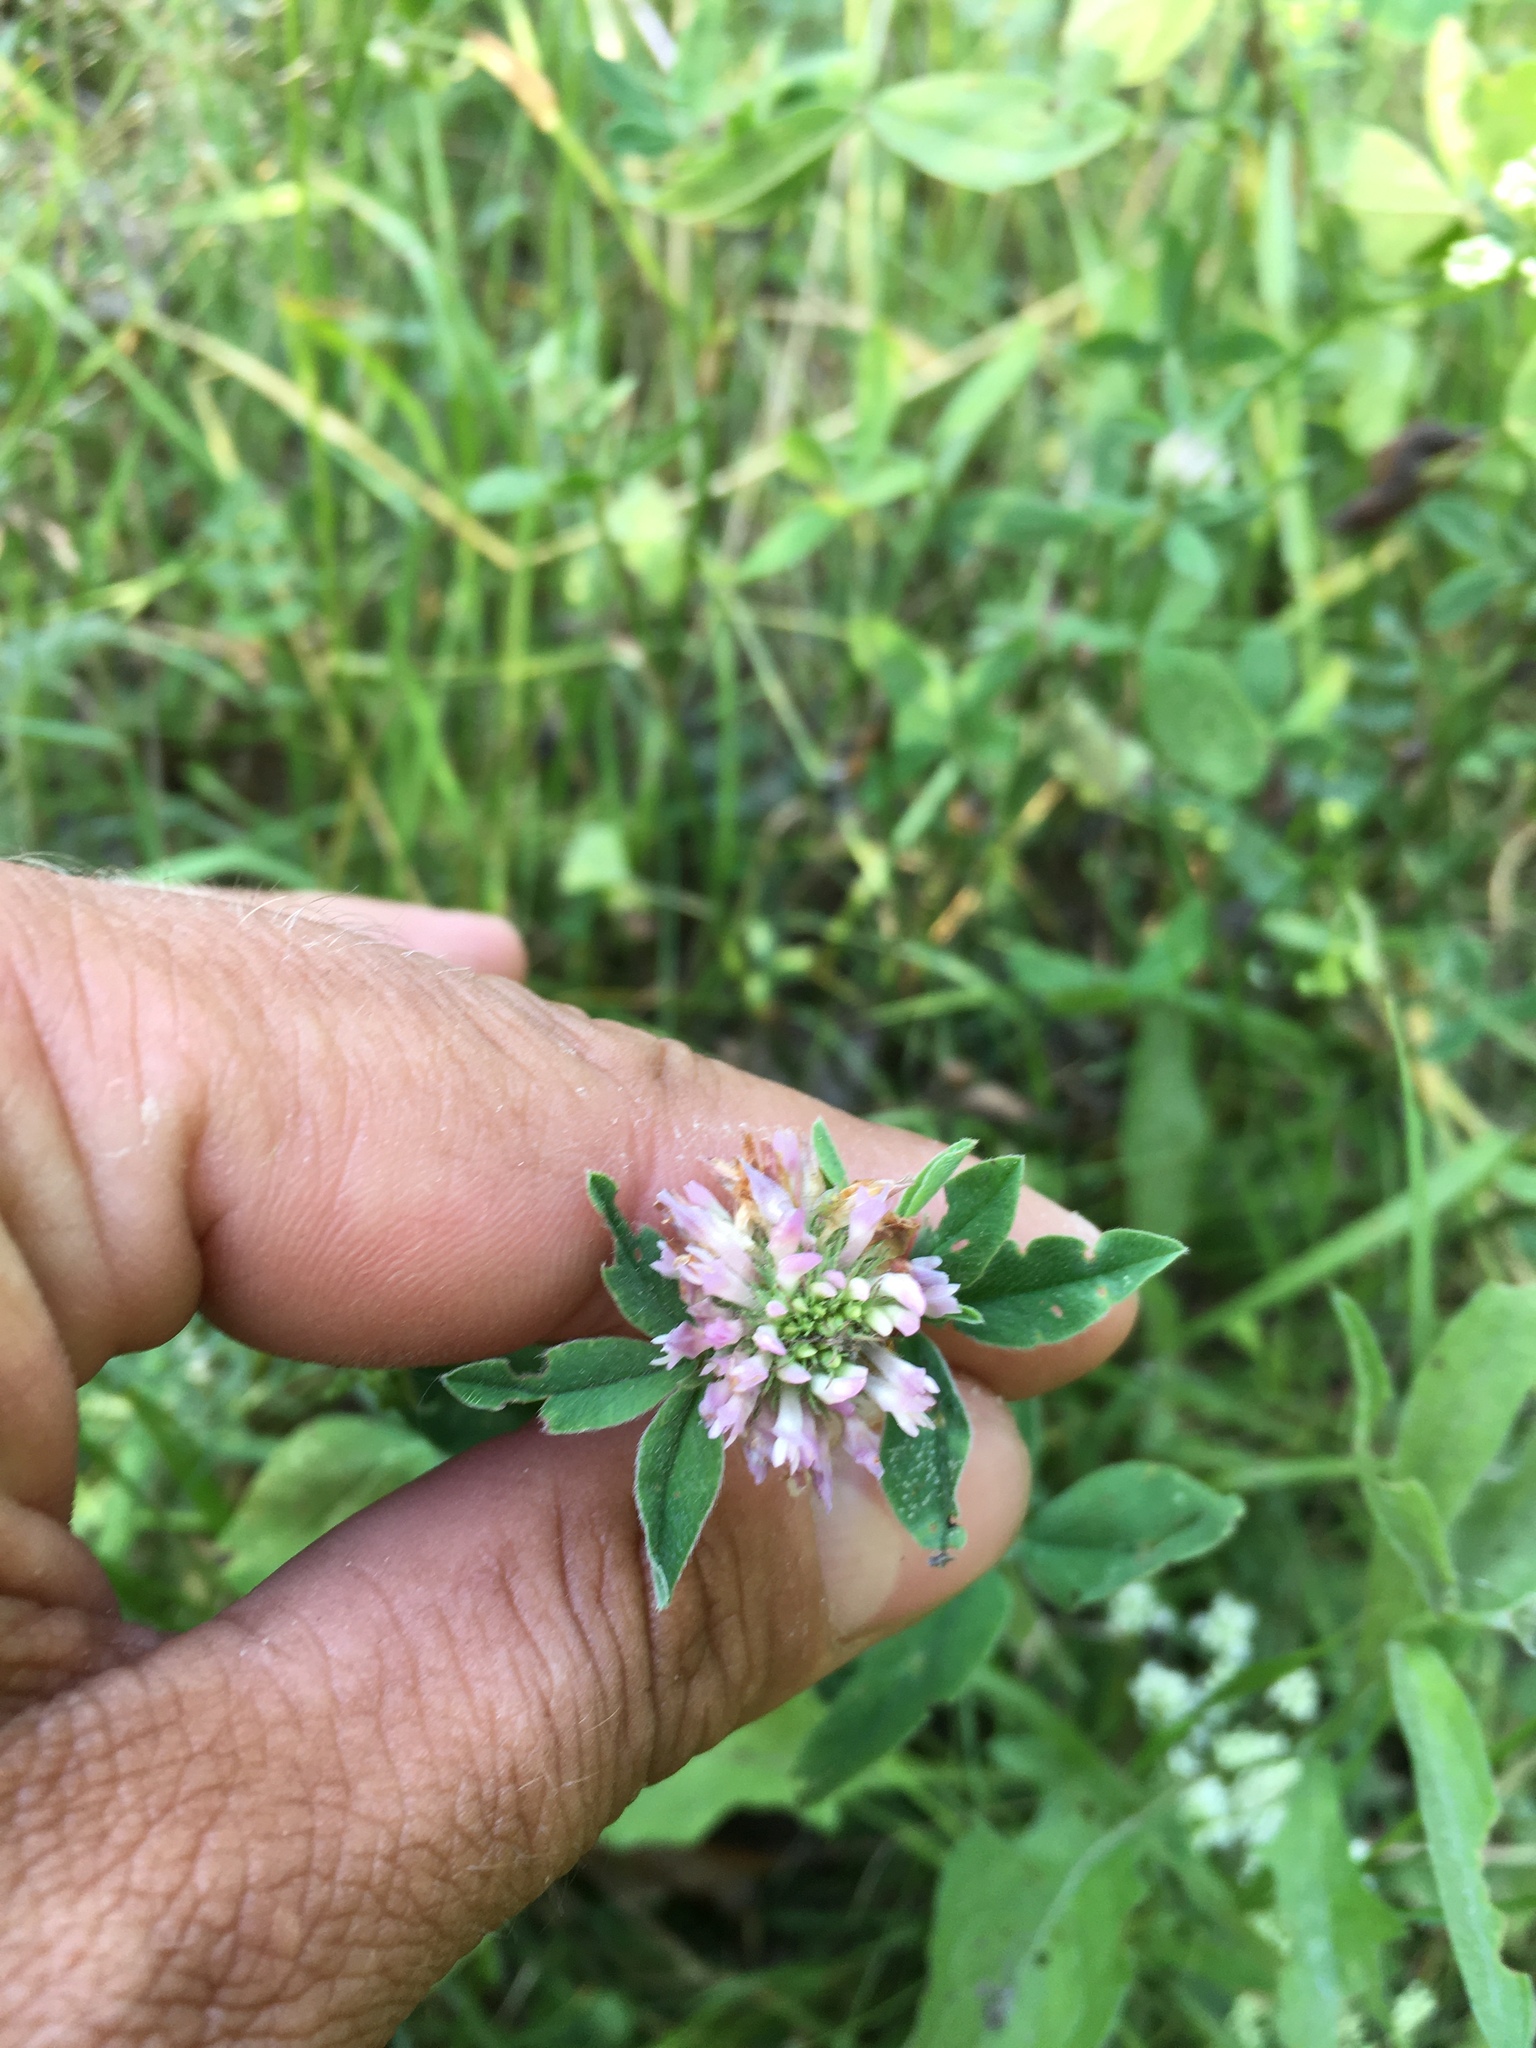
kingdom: Plantae
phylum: Tracheophyta
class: Magnoliopsida
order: Fabales
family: Fabaceae
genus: Trifolium
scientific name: Trifolium pratense
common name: Red clover
